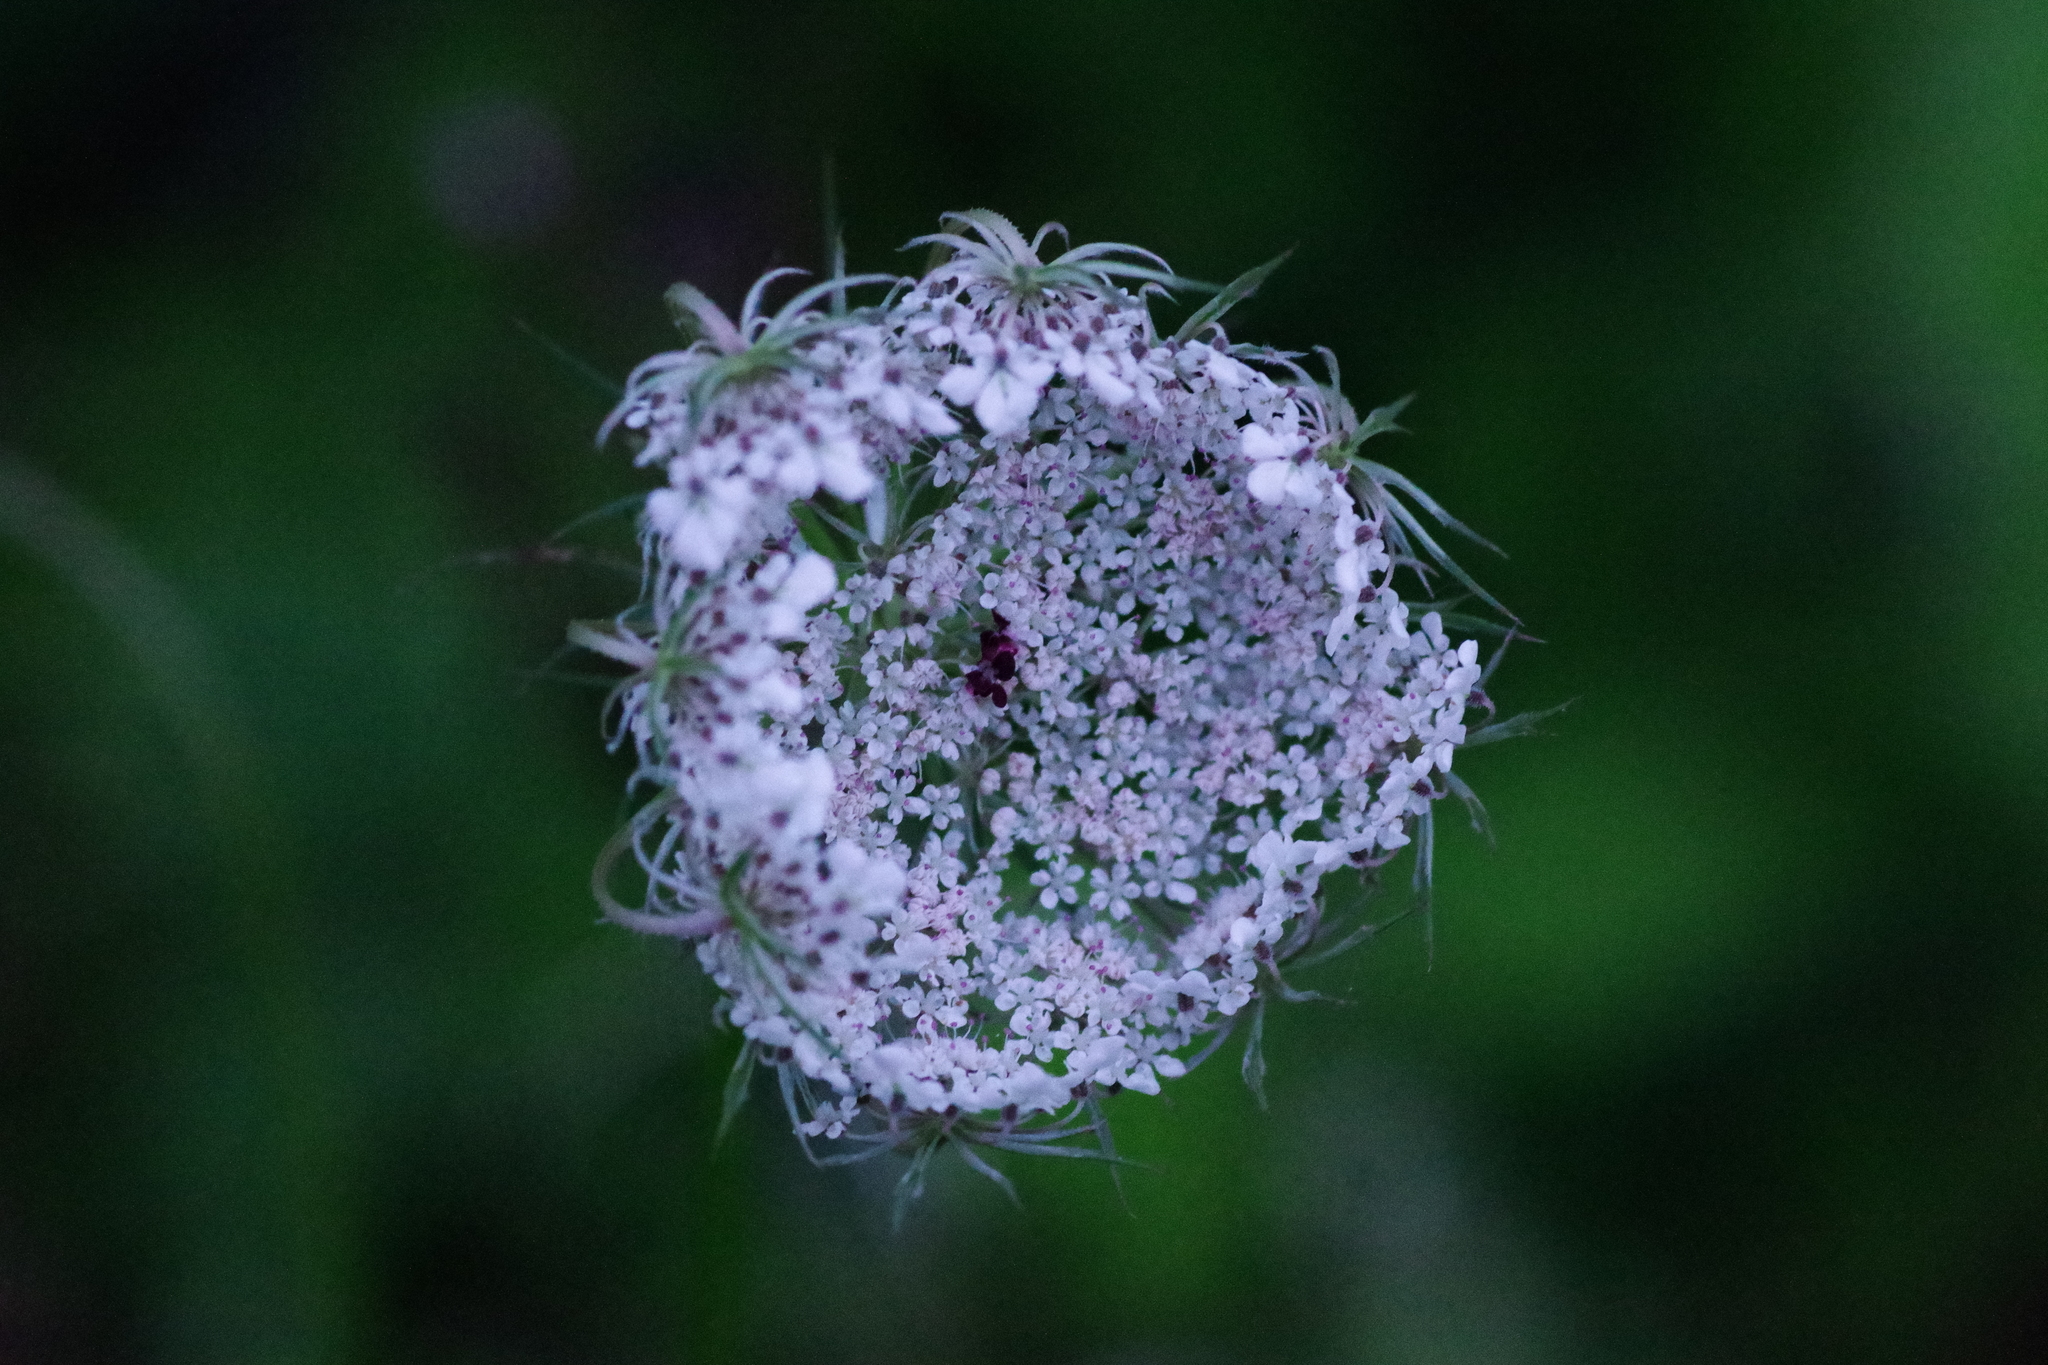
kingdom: Plantae
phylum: Tracheophyta
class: Magnoliopsida
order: Apiales
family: Apiaceae
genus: Daucus
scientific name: Daucus carota
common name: Wild carrot
